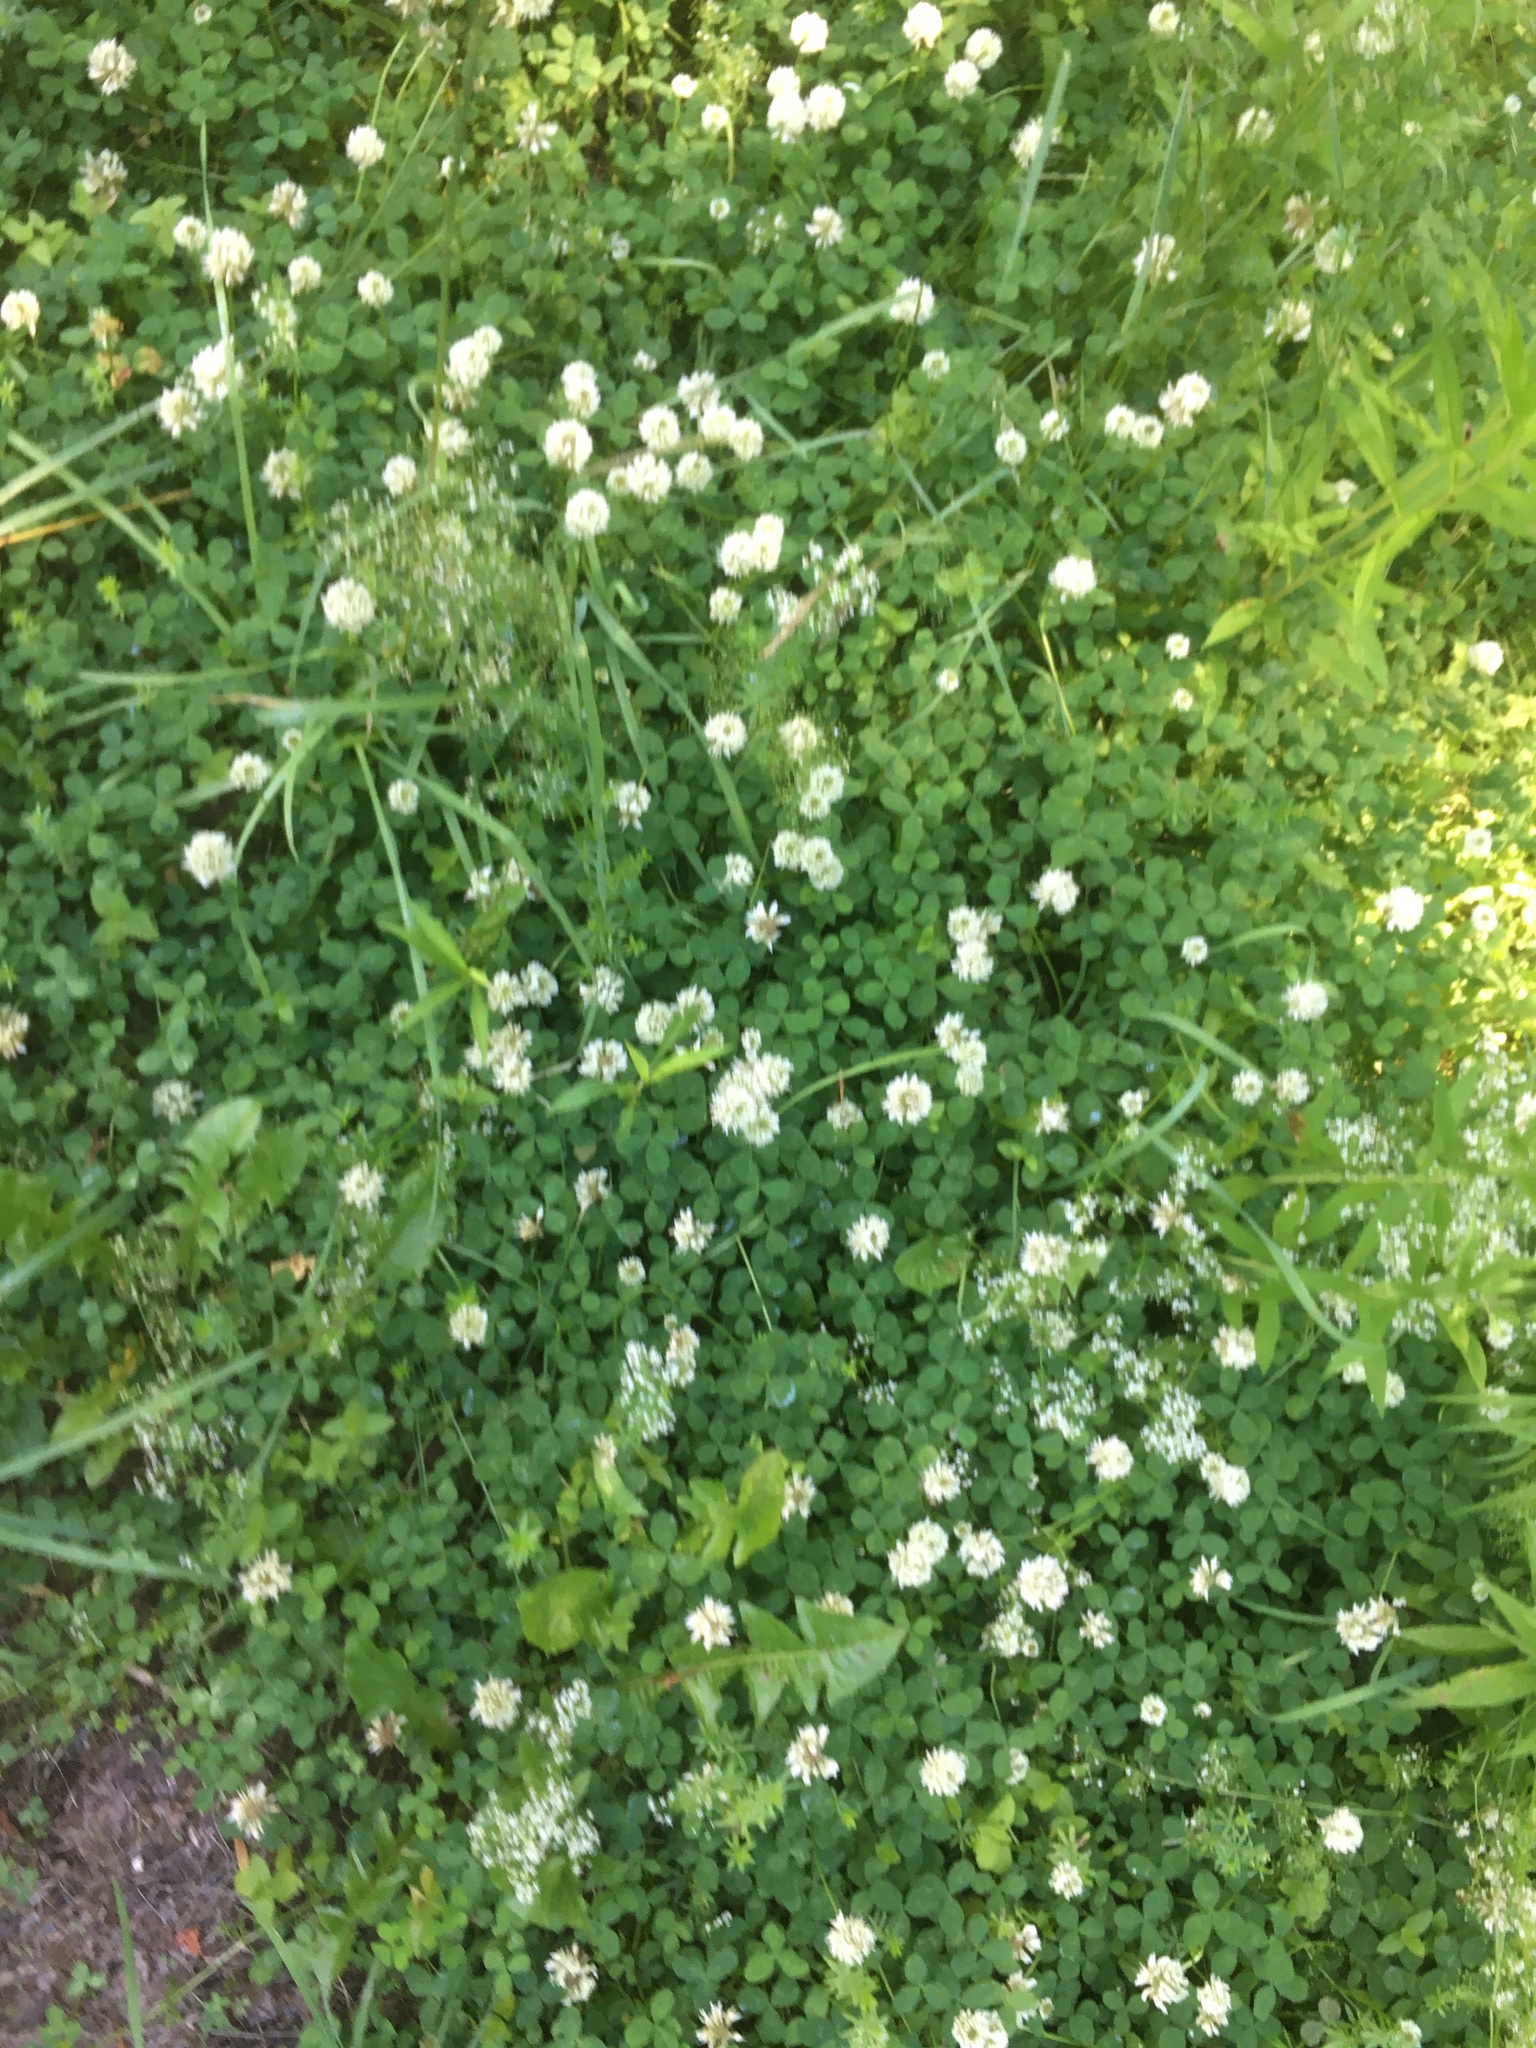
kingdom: Plantae
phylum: Tracheophyta
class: Magnoliopsida
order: Fabales
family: Fabaceae
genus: Trifolium
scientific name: Trifolium repens
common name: White clover
